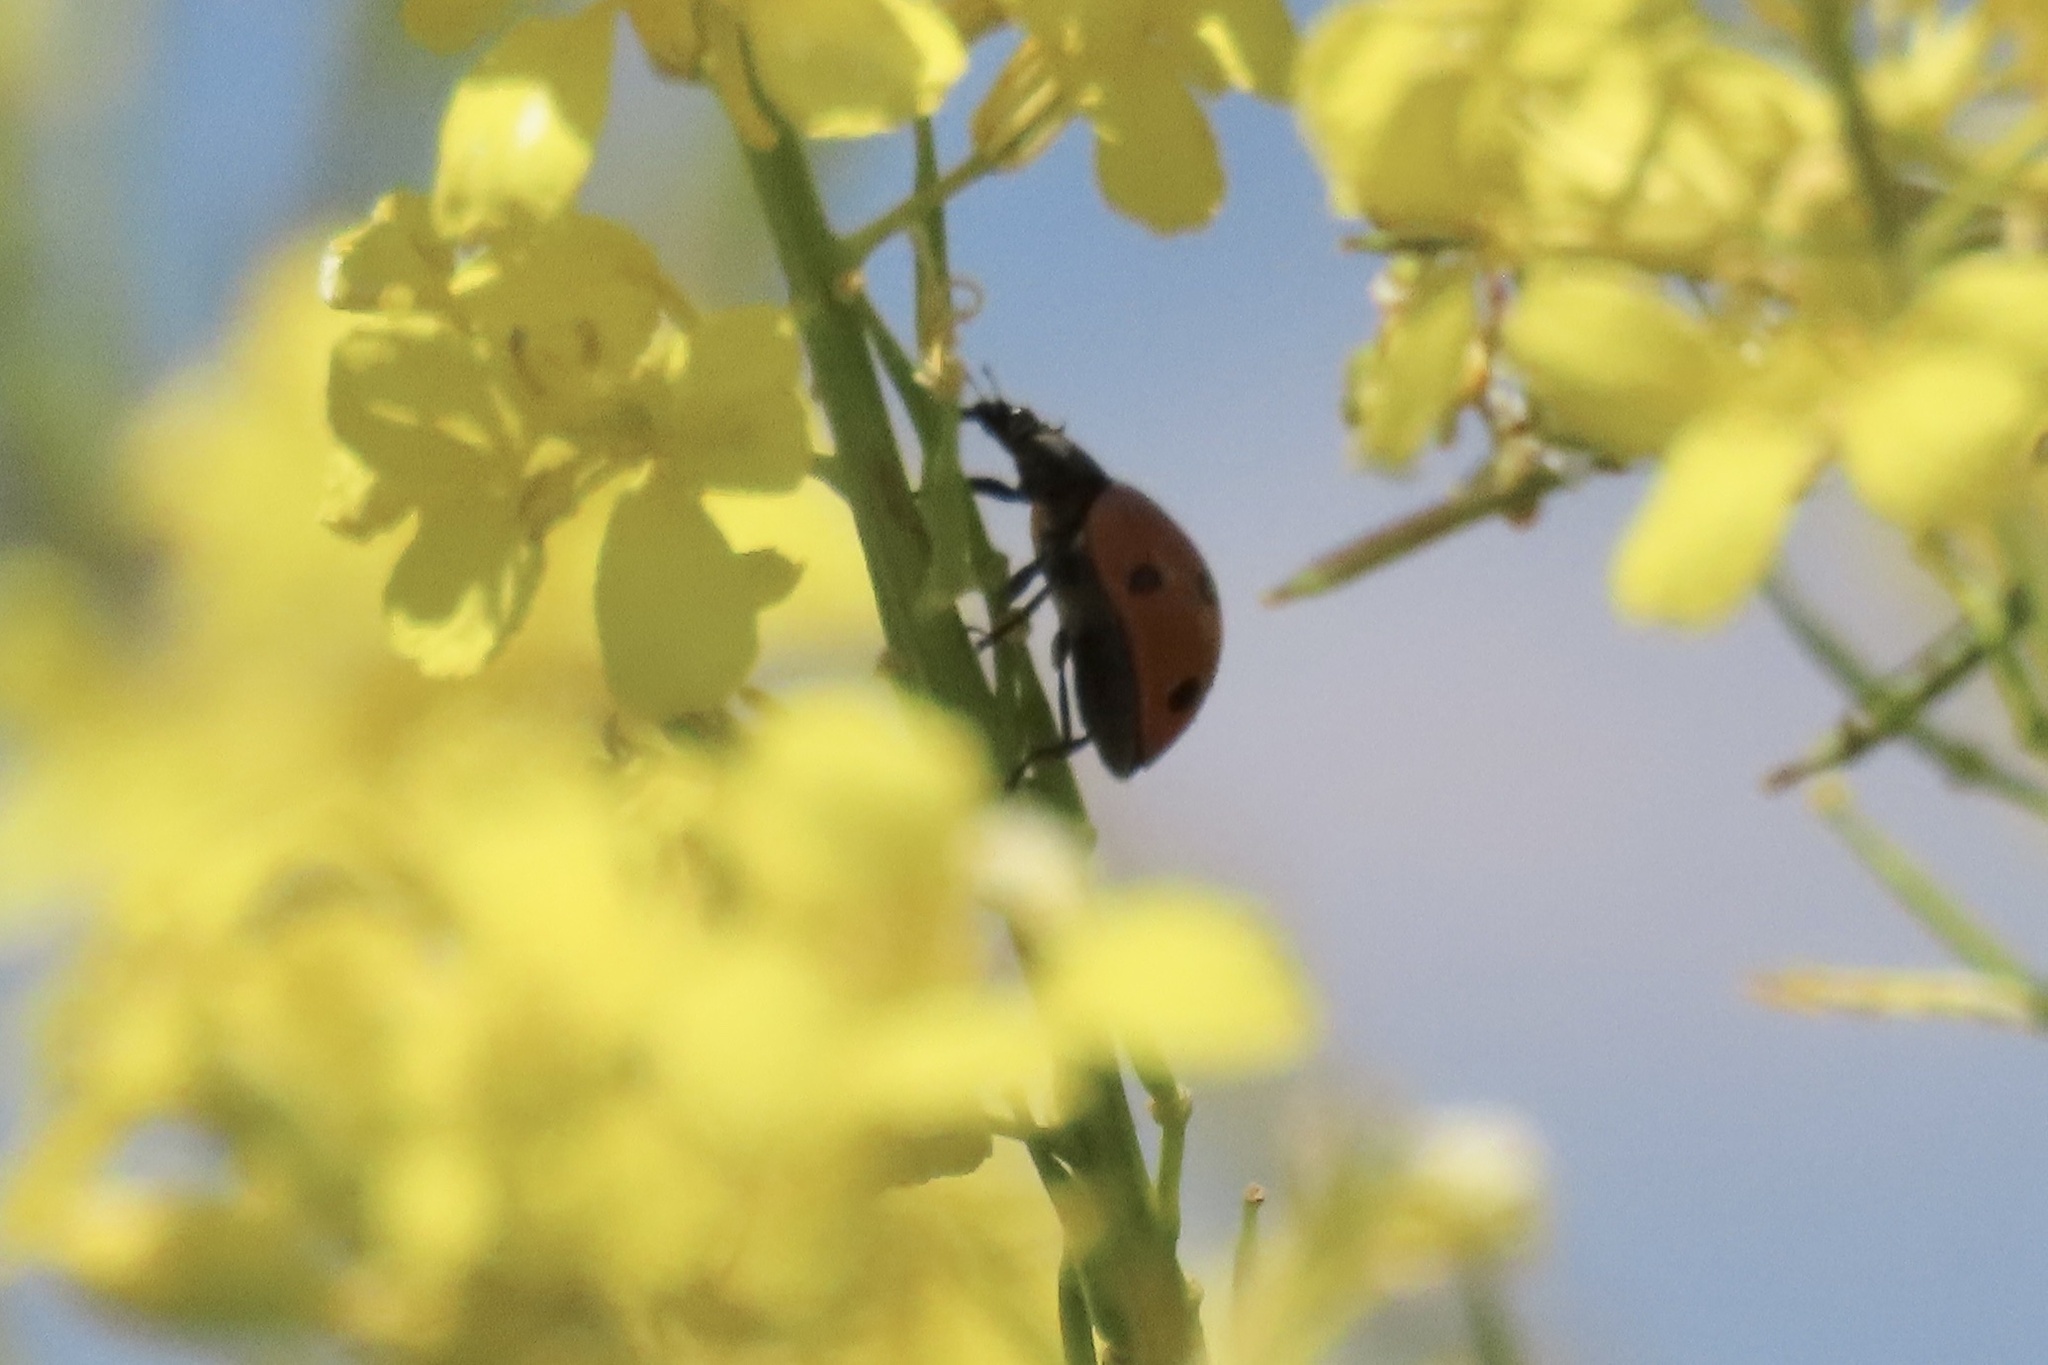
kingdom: Animalia
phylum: Arthropoda
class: Insecta
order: Coleoptera
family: Coccinellidae
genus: Coccinella
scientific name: Coccinella septempunctata
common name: Sevenspotted lady beetle
